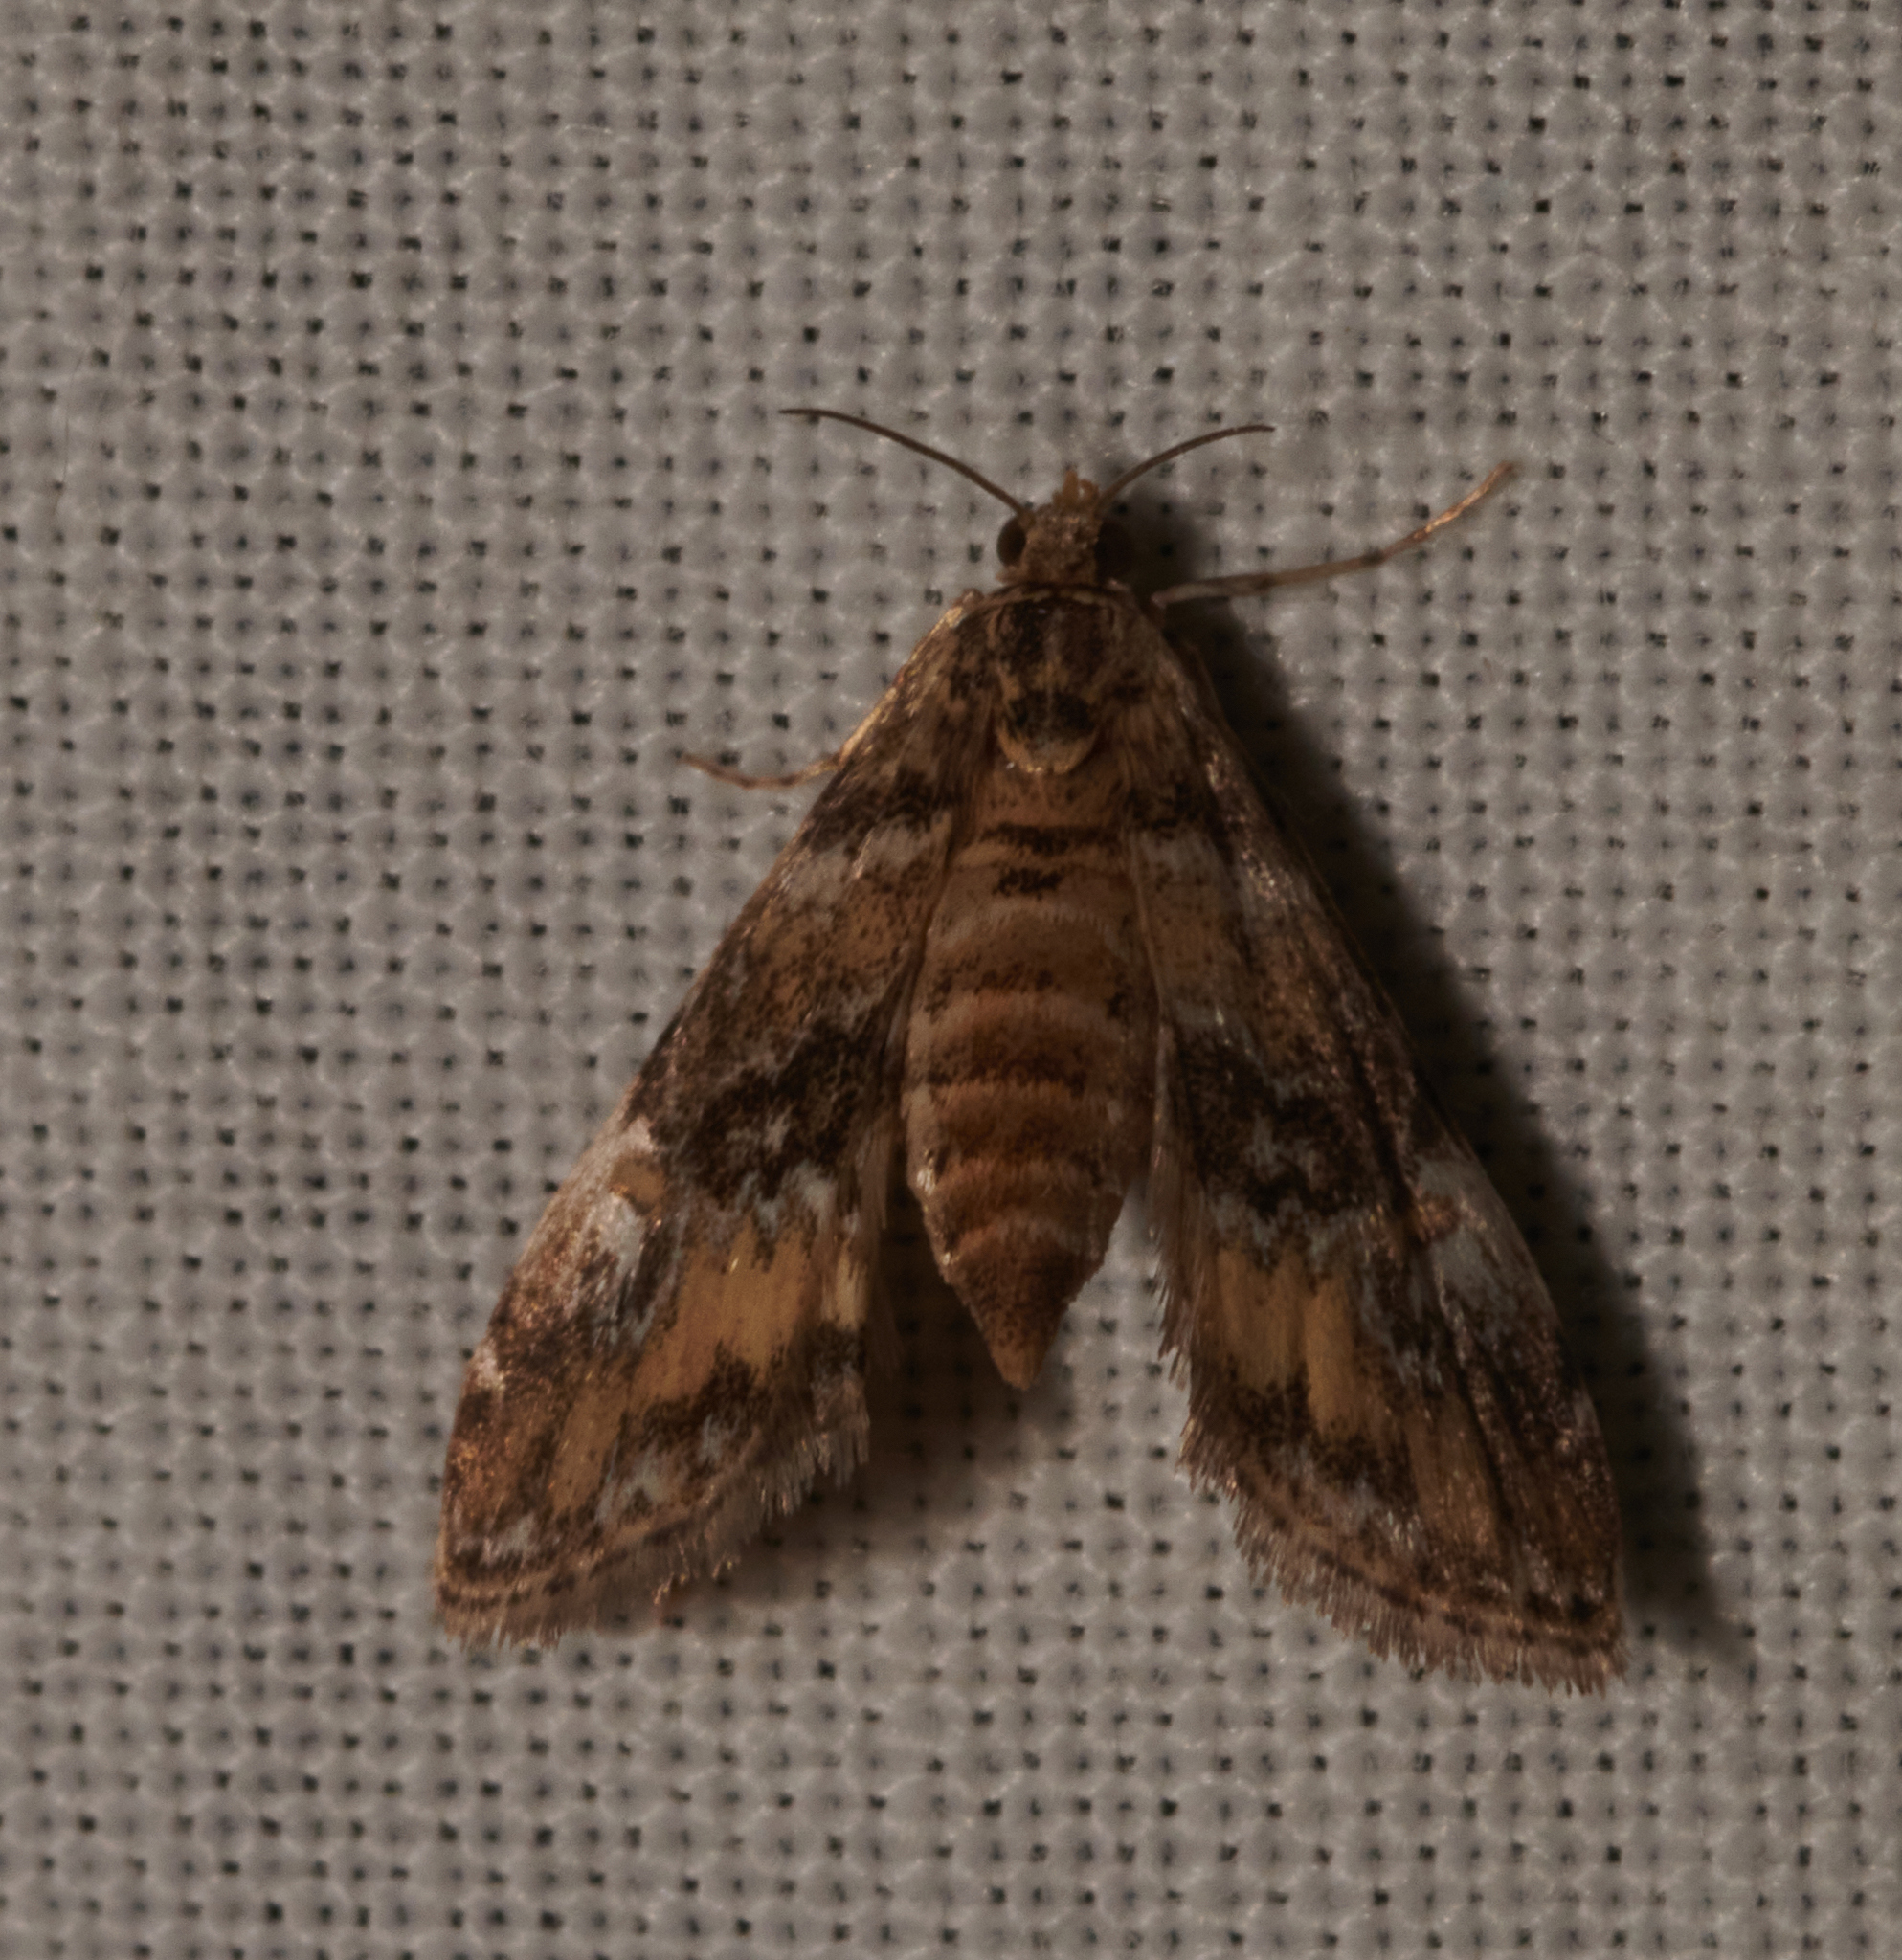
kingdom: Animalia
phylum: Arthropoda
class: Insecta
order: Lepidoptera
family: Crambidae
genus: Elophila
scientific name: Elophila obliteralis
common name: Waterlily leafcutter moth
